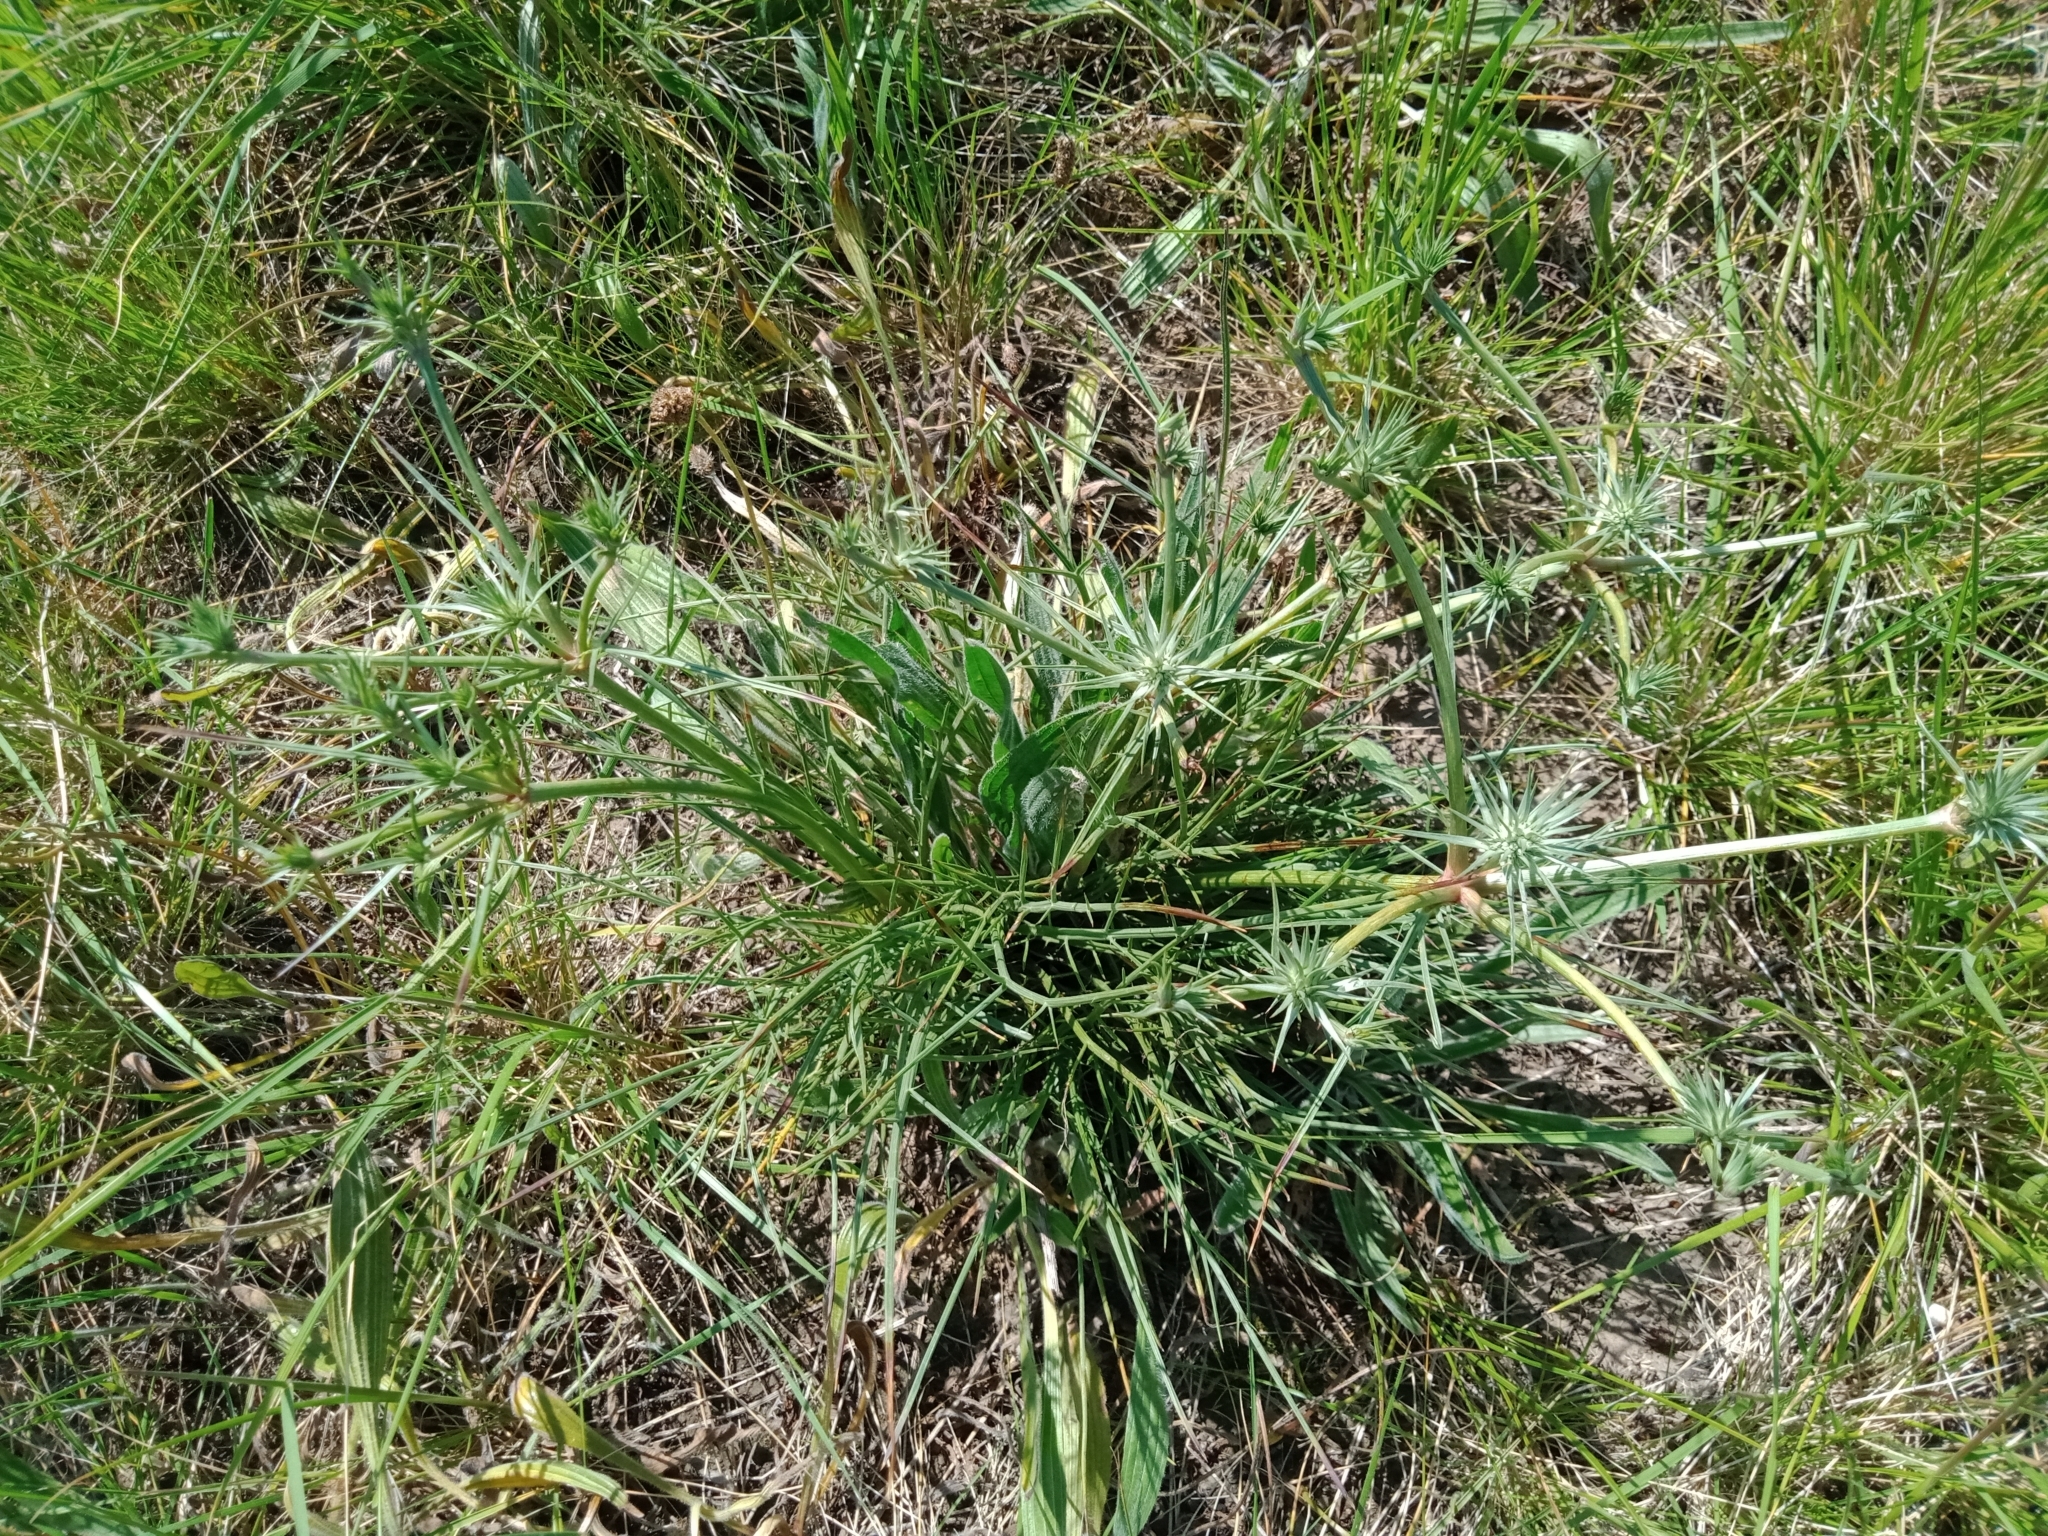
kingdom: Plantae
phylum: Tracheophyta
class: Magnoliopsida
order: Apiales
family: Apiaceae
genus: Eryngium
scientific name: Eryngium ovinum
